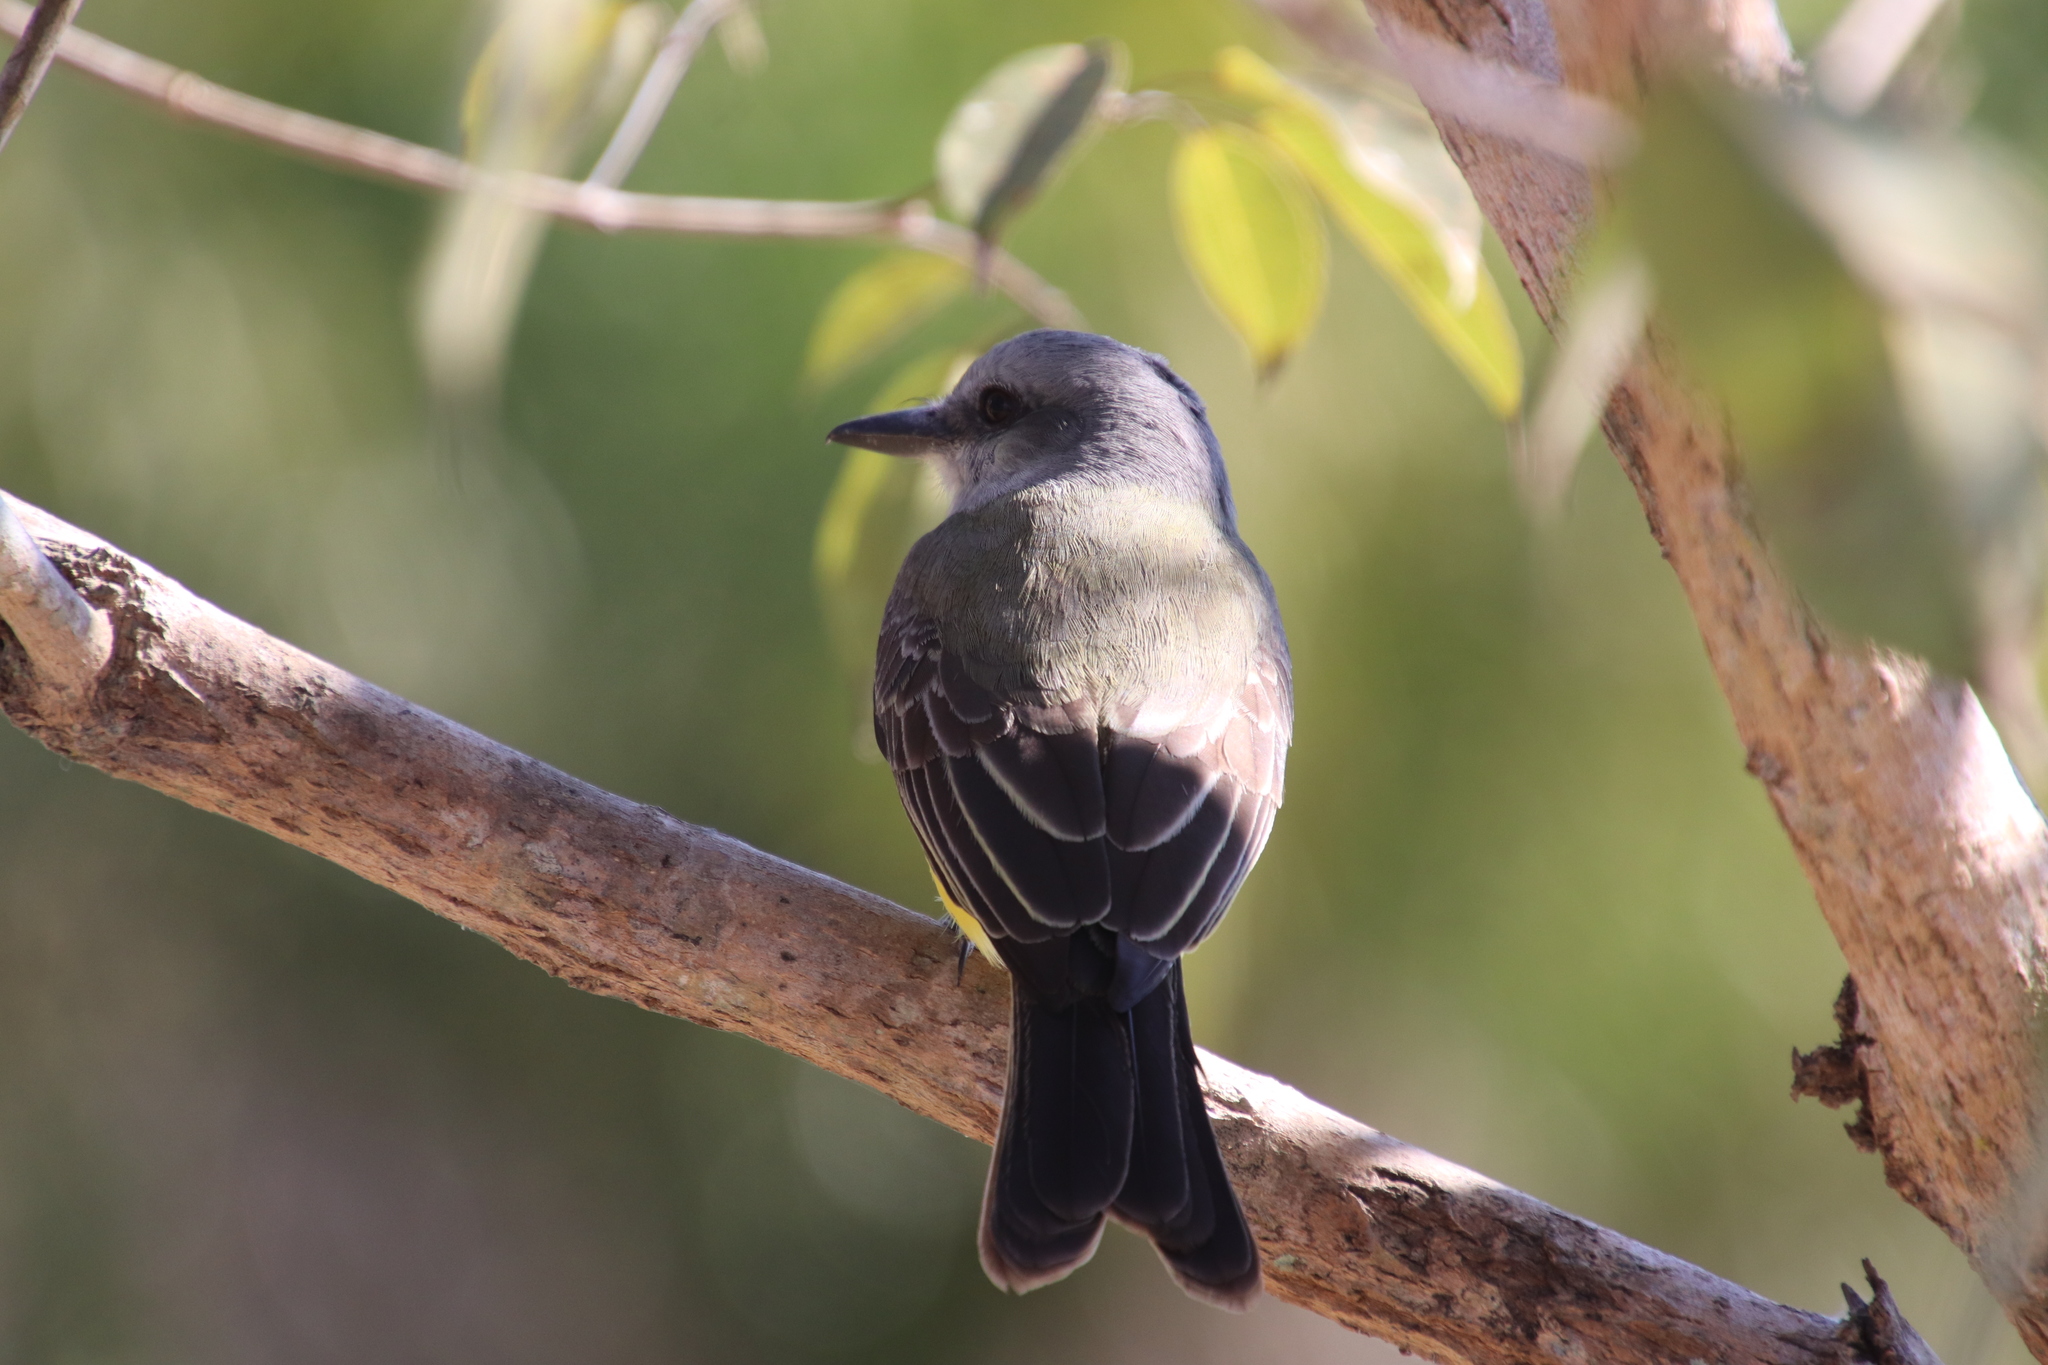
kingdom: Animalia
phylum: Chordata
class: Aves
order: Passeriformes
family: Tyrannidae
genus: Tyrannus
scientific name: Tyrannus melancholicus
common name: Tropical kingbird
